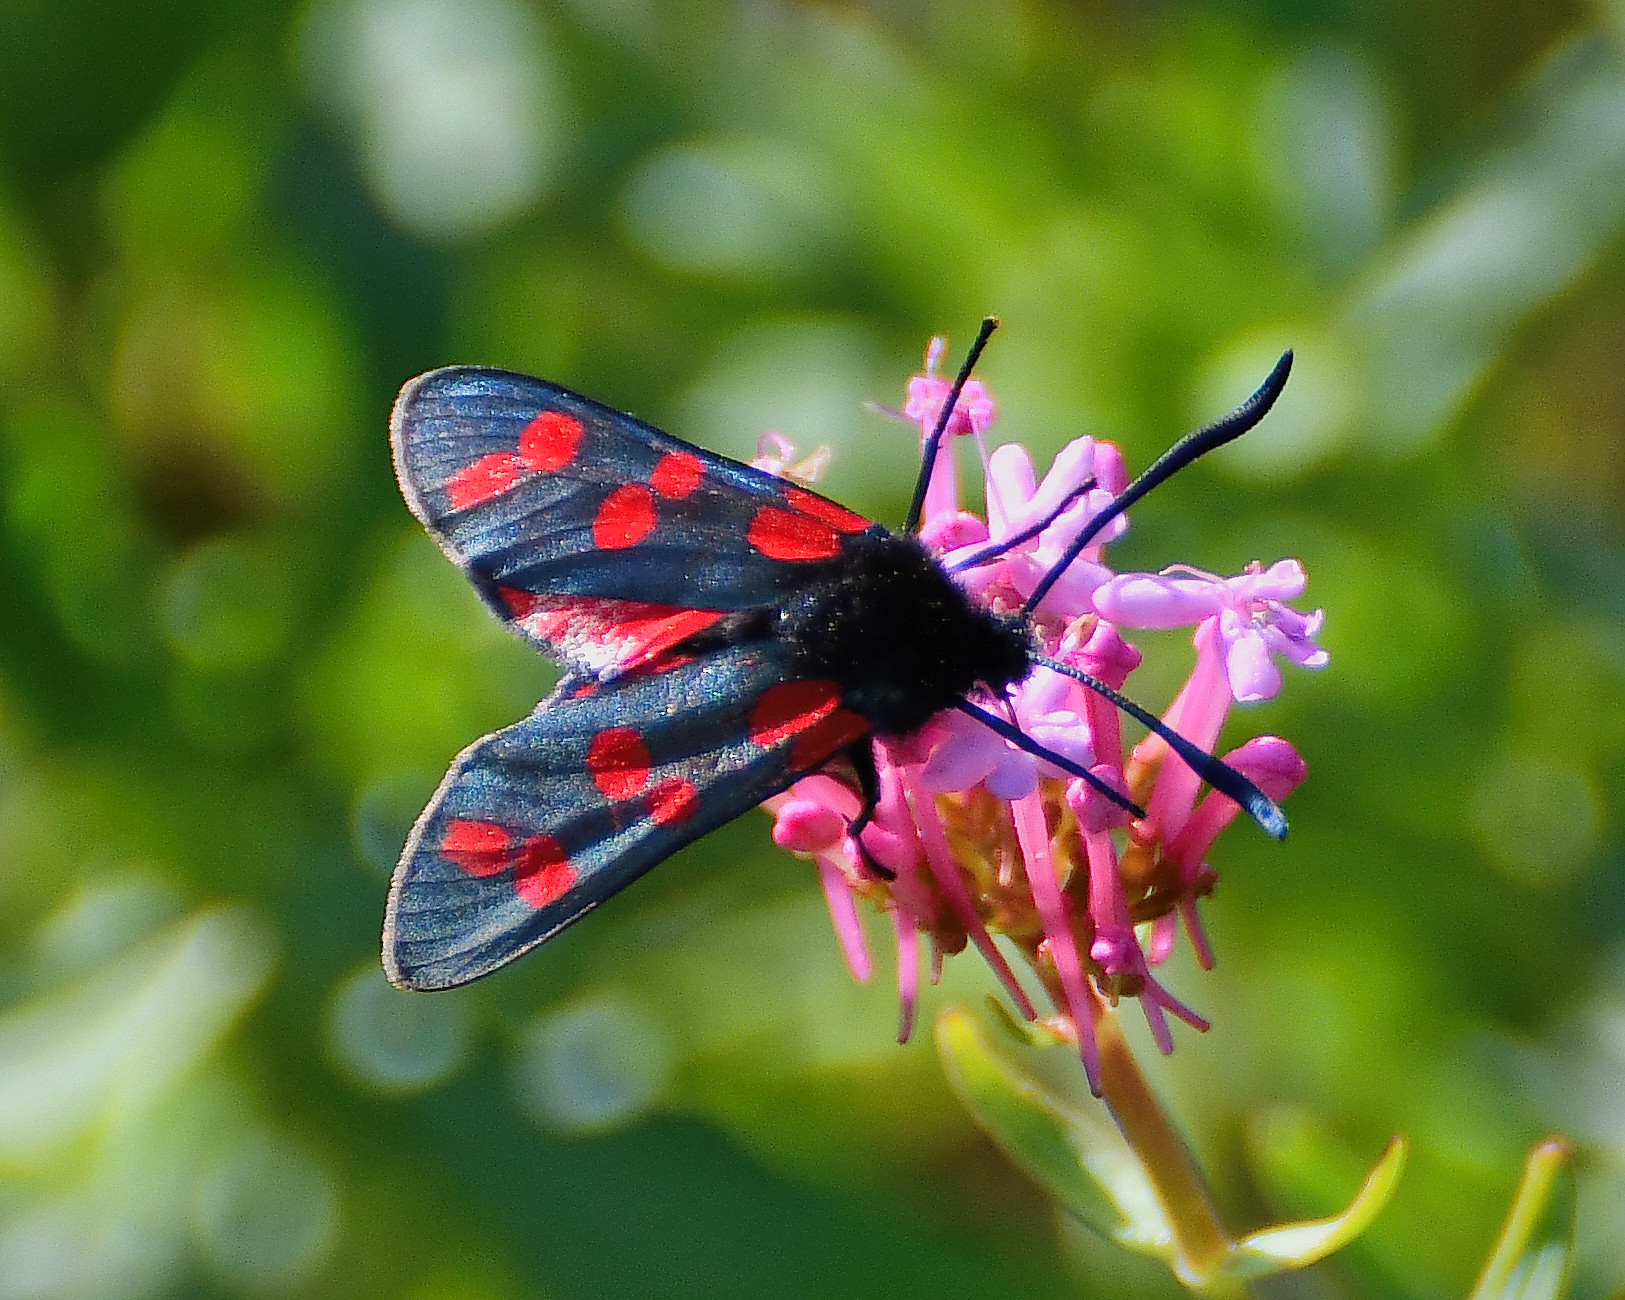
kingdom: Animalia
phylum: Arthropoda
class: Insecta
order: Lepidoptera
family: Zygaenidae
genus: Zygaena
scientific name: Zygaena filipendulae
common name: Six-spot burnet
